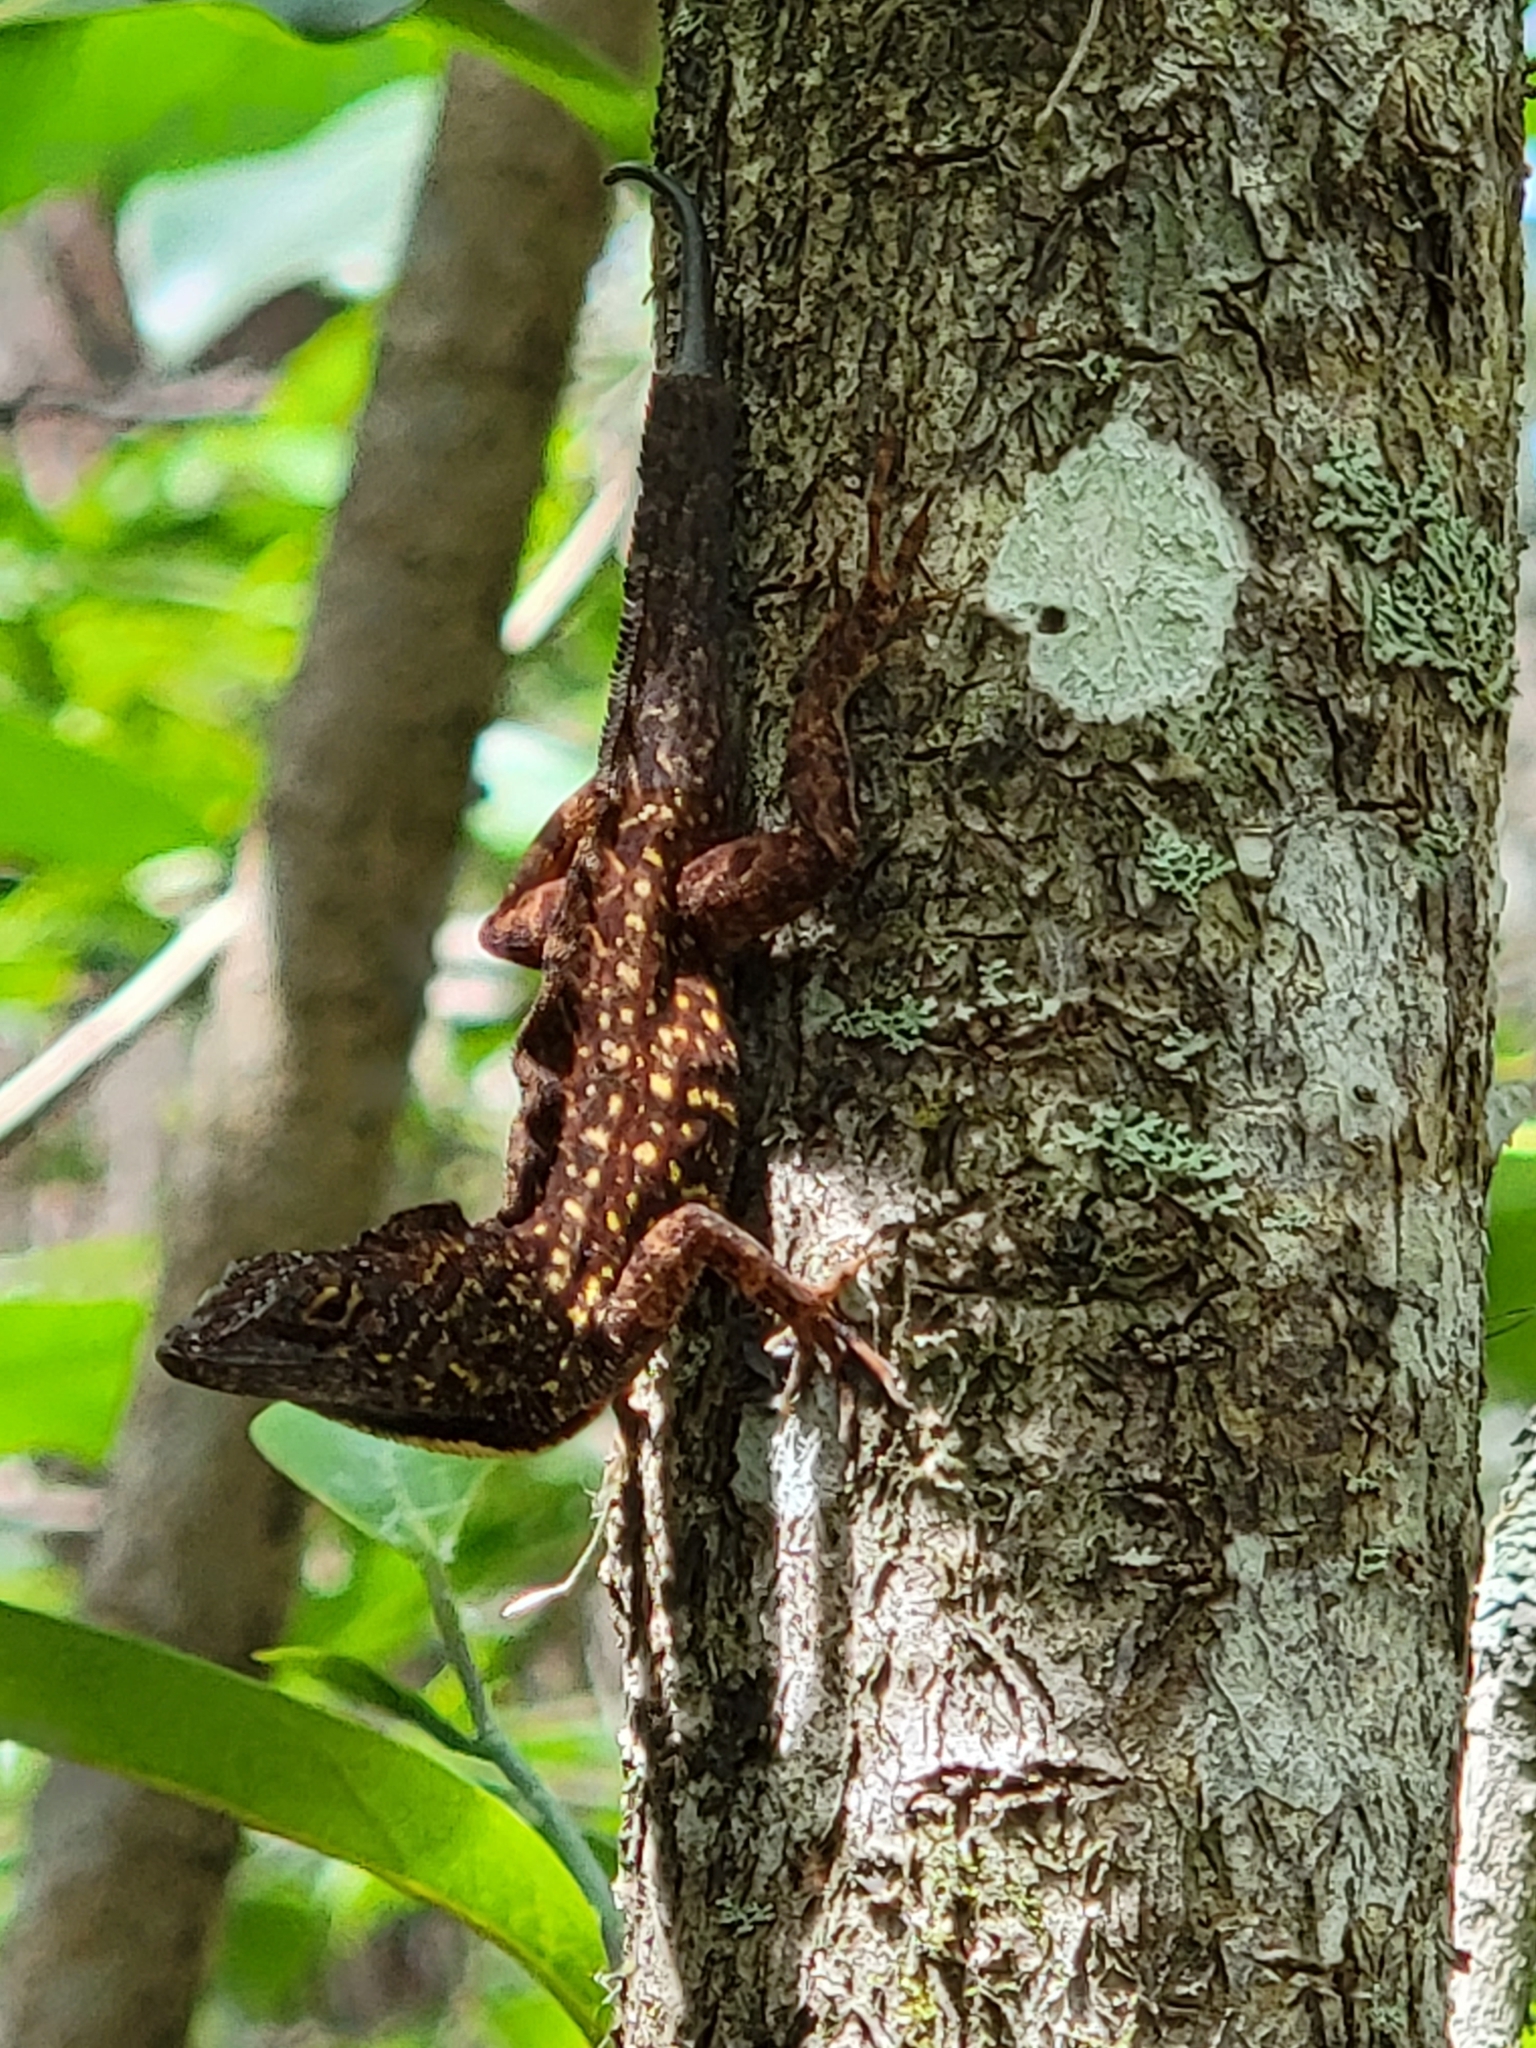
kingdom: Animalia
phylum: Chordata
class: Squamata
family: Dactyloidae
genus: Anolis
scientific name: Anolis sagrei
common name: Brown anole
